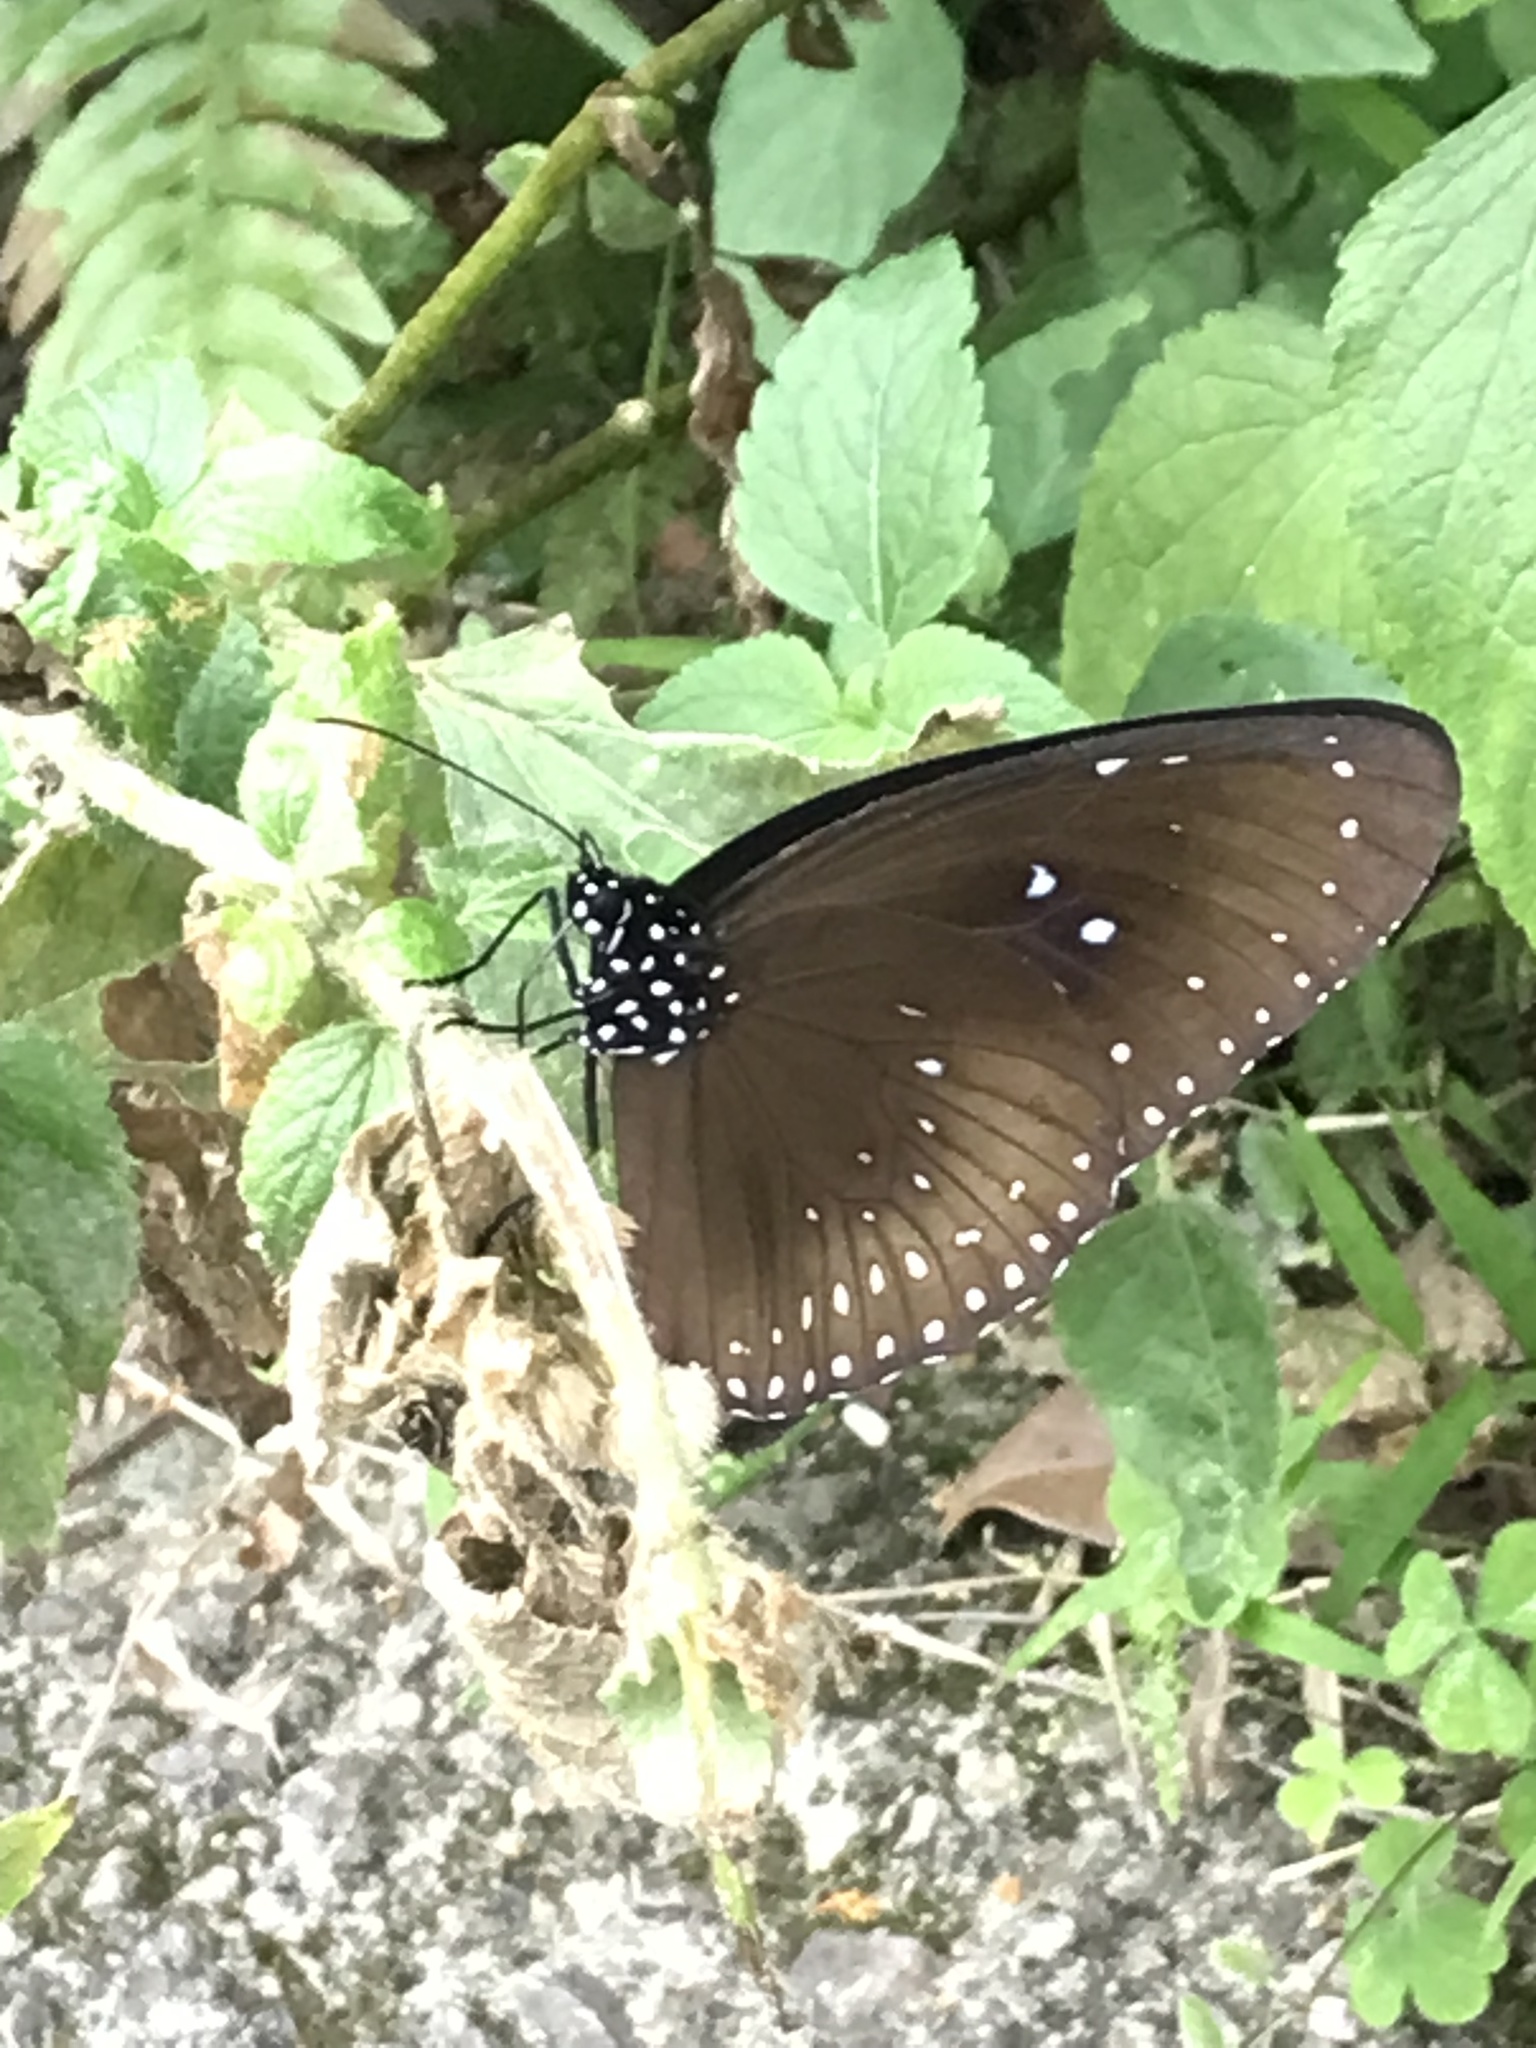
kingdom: Animalia
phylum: Arthropoda
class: Insecta
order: Lepidoptera
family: Nymphalidae
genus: Euploea
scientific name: Euploea midamus
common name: Blue-spotted crow butterfly
